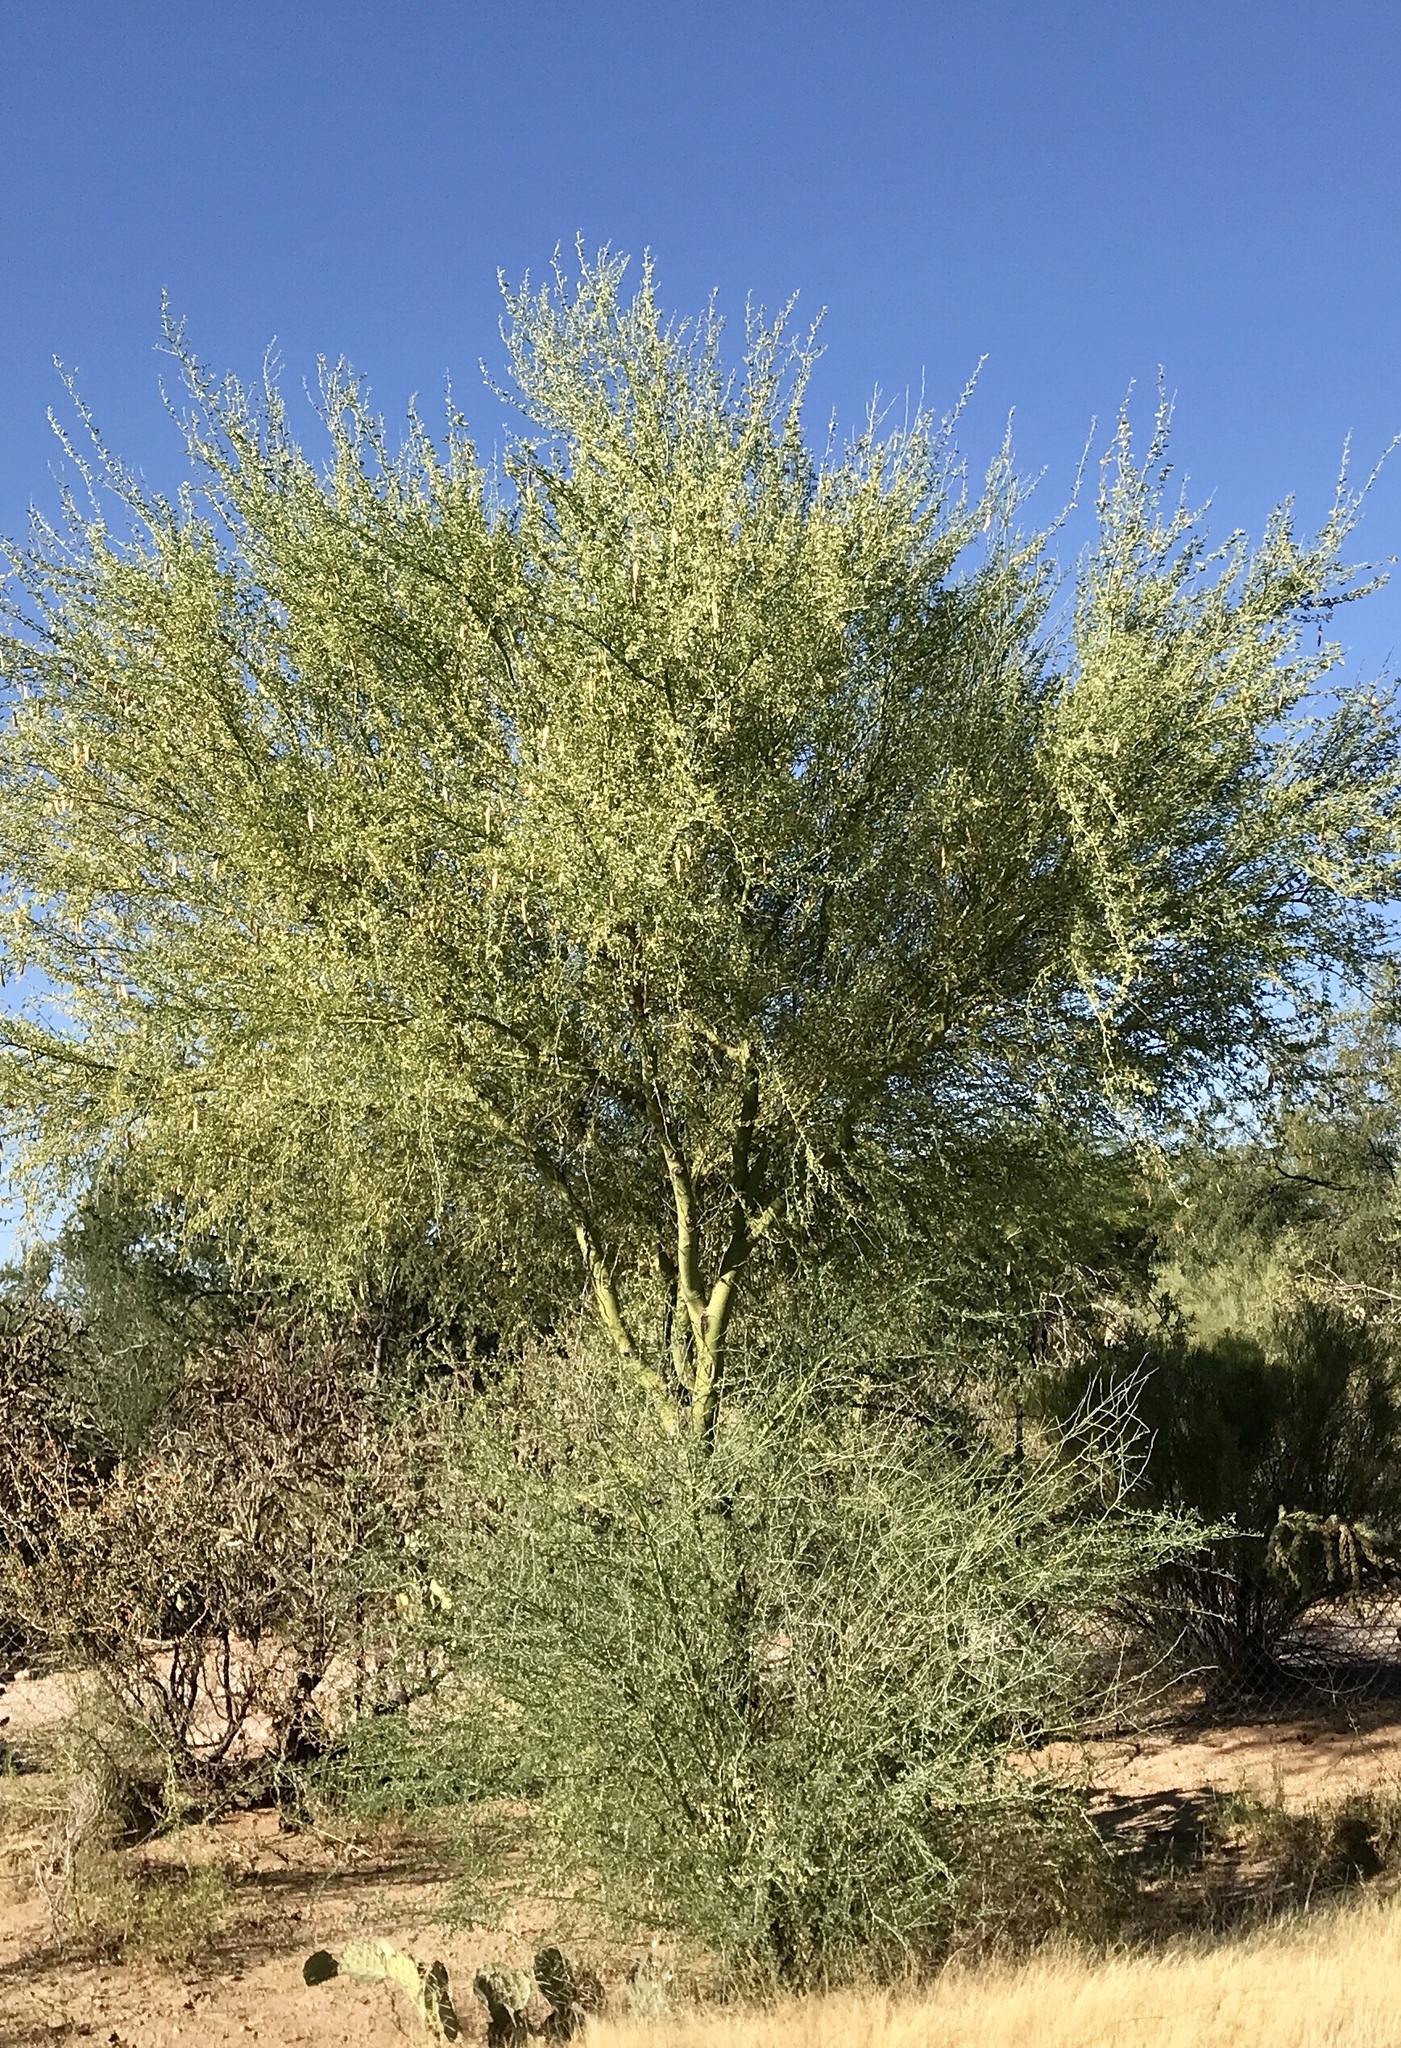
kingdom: Plantae
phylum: Tracheophyta
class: Magnoliopsida
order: Fabales
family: Fabaceae
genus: Parkinsonia
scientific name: Parkinsonia florida
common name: Blue paloverde
